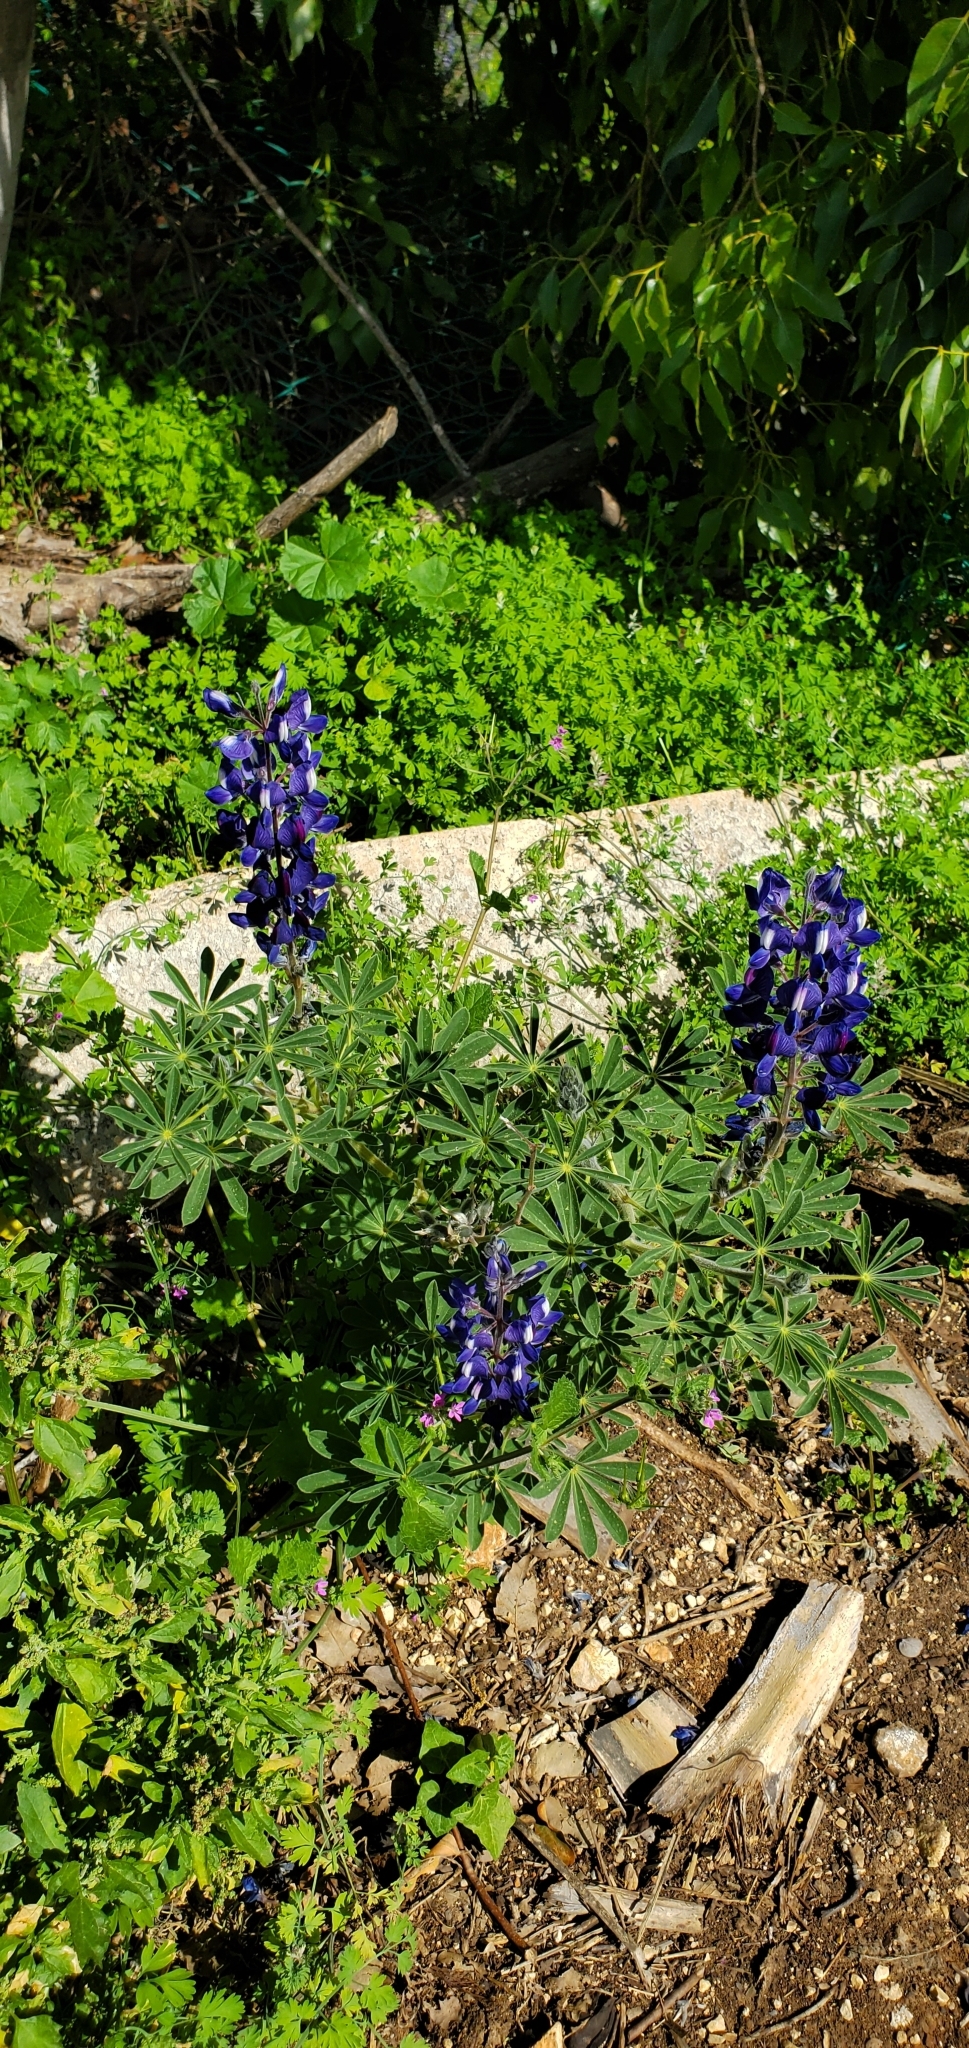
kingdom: Plantae
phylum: Tracheophyta
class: Magnoliopsida
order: Fabales
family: Fabaceae
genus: Lupinus
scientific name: Lupinus pilosus
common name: Blue lupine
